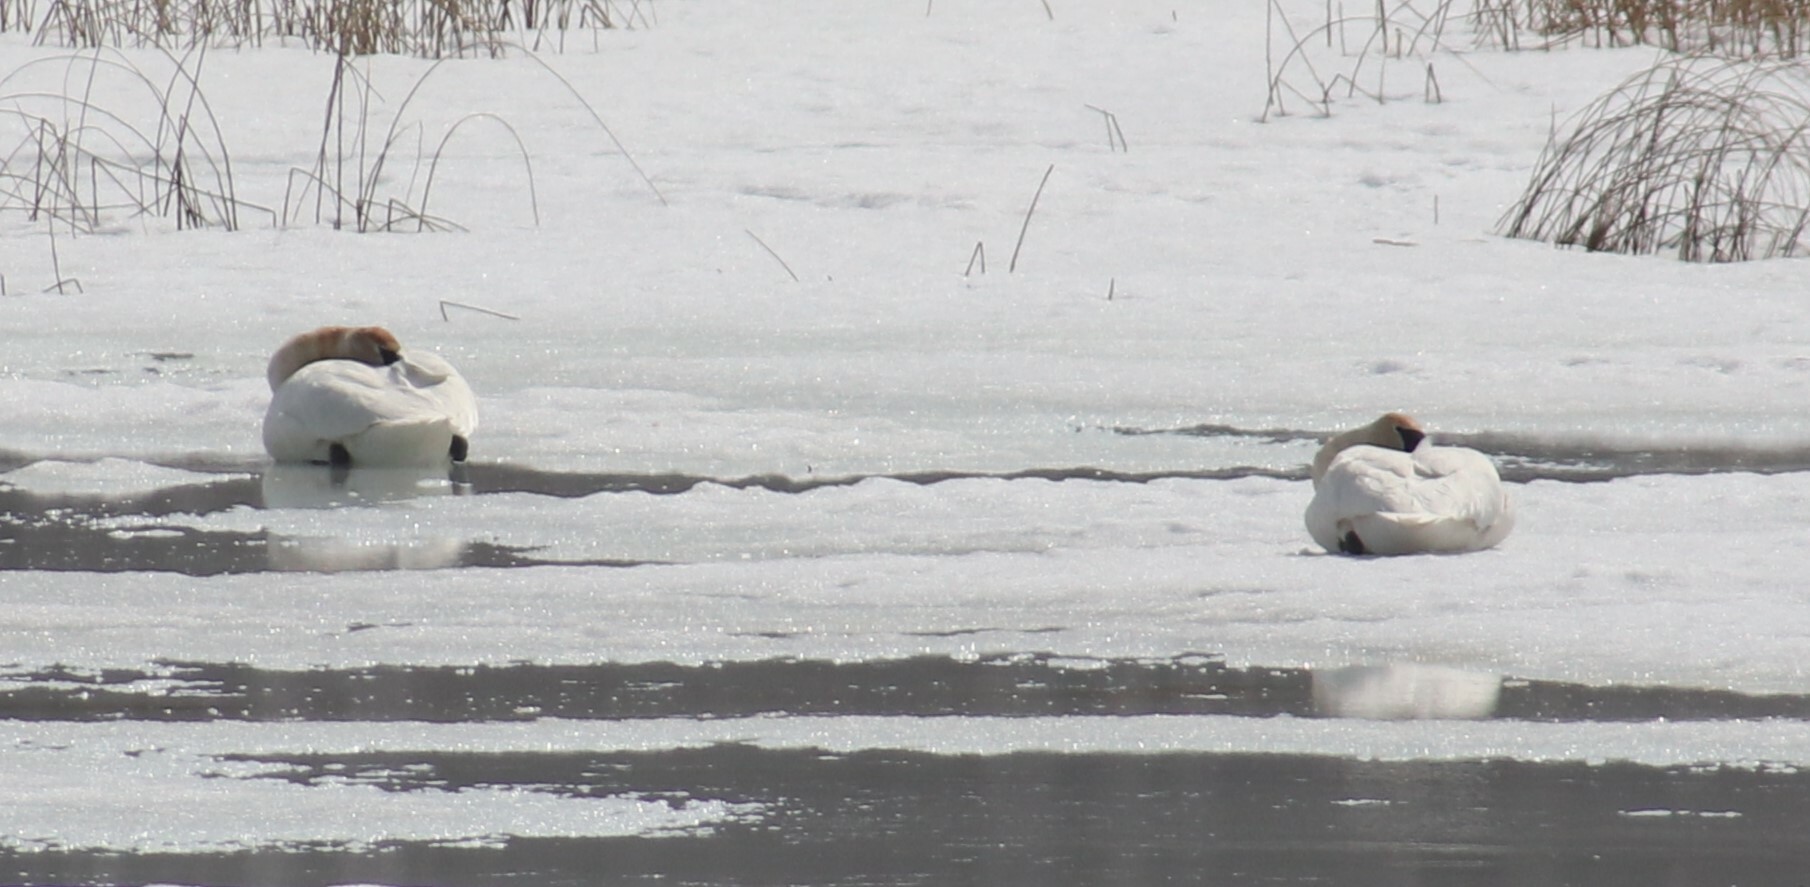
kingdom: Animalia
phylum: Chordata
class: Aves
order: Anseriformes
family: Anatidae
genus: Cygnus
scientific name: Cygnus buccinator
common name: Trumpeter swan
